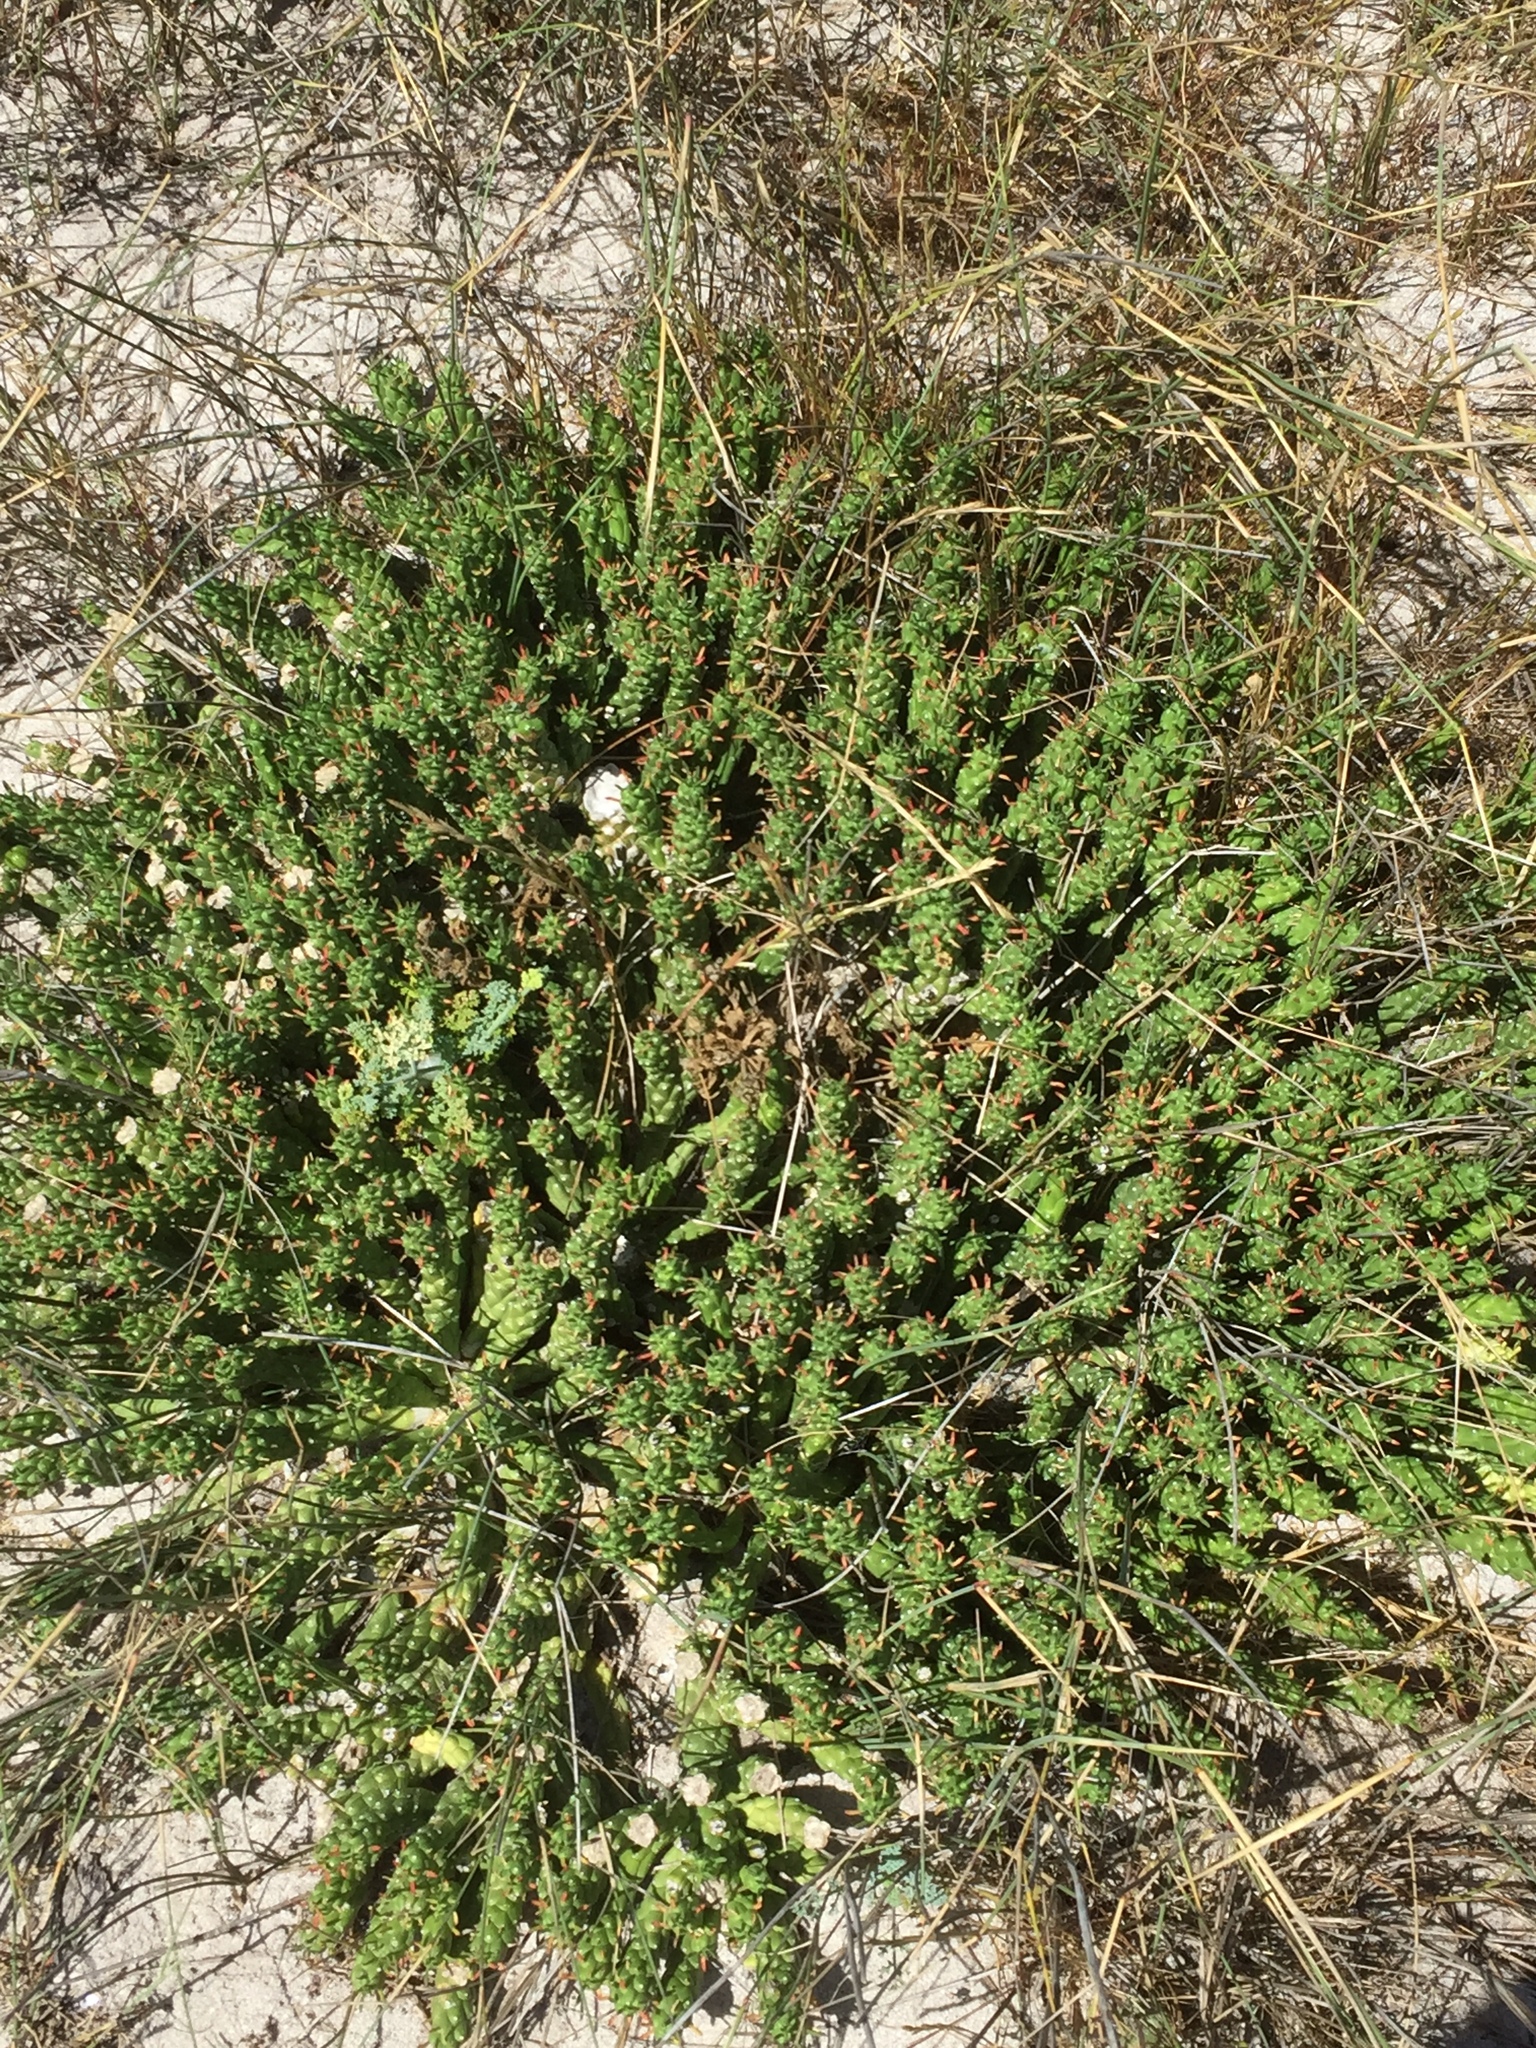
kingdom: Plantae
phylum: Tracheophyta
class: Magnoliopsida
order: Malpighiales
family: Euphorbiaceae
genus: Euphorbia
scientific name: Euphorbia caput-medusae
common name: Medusa's-head
